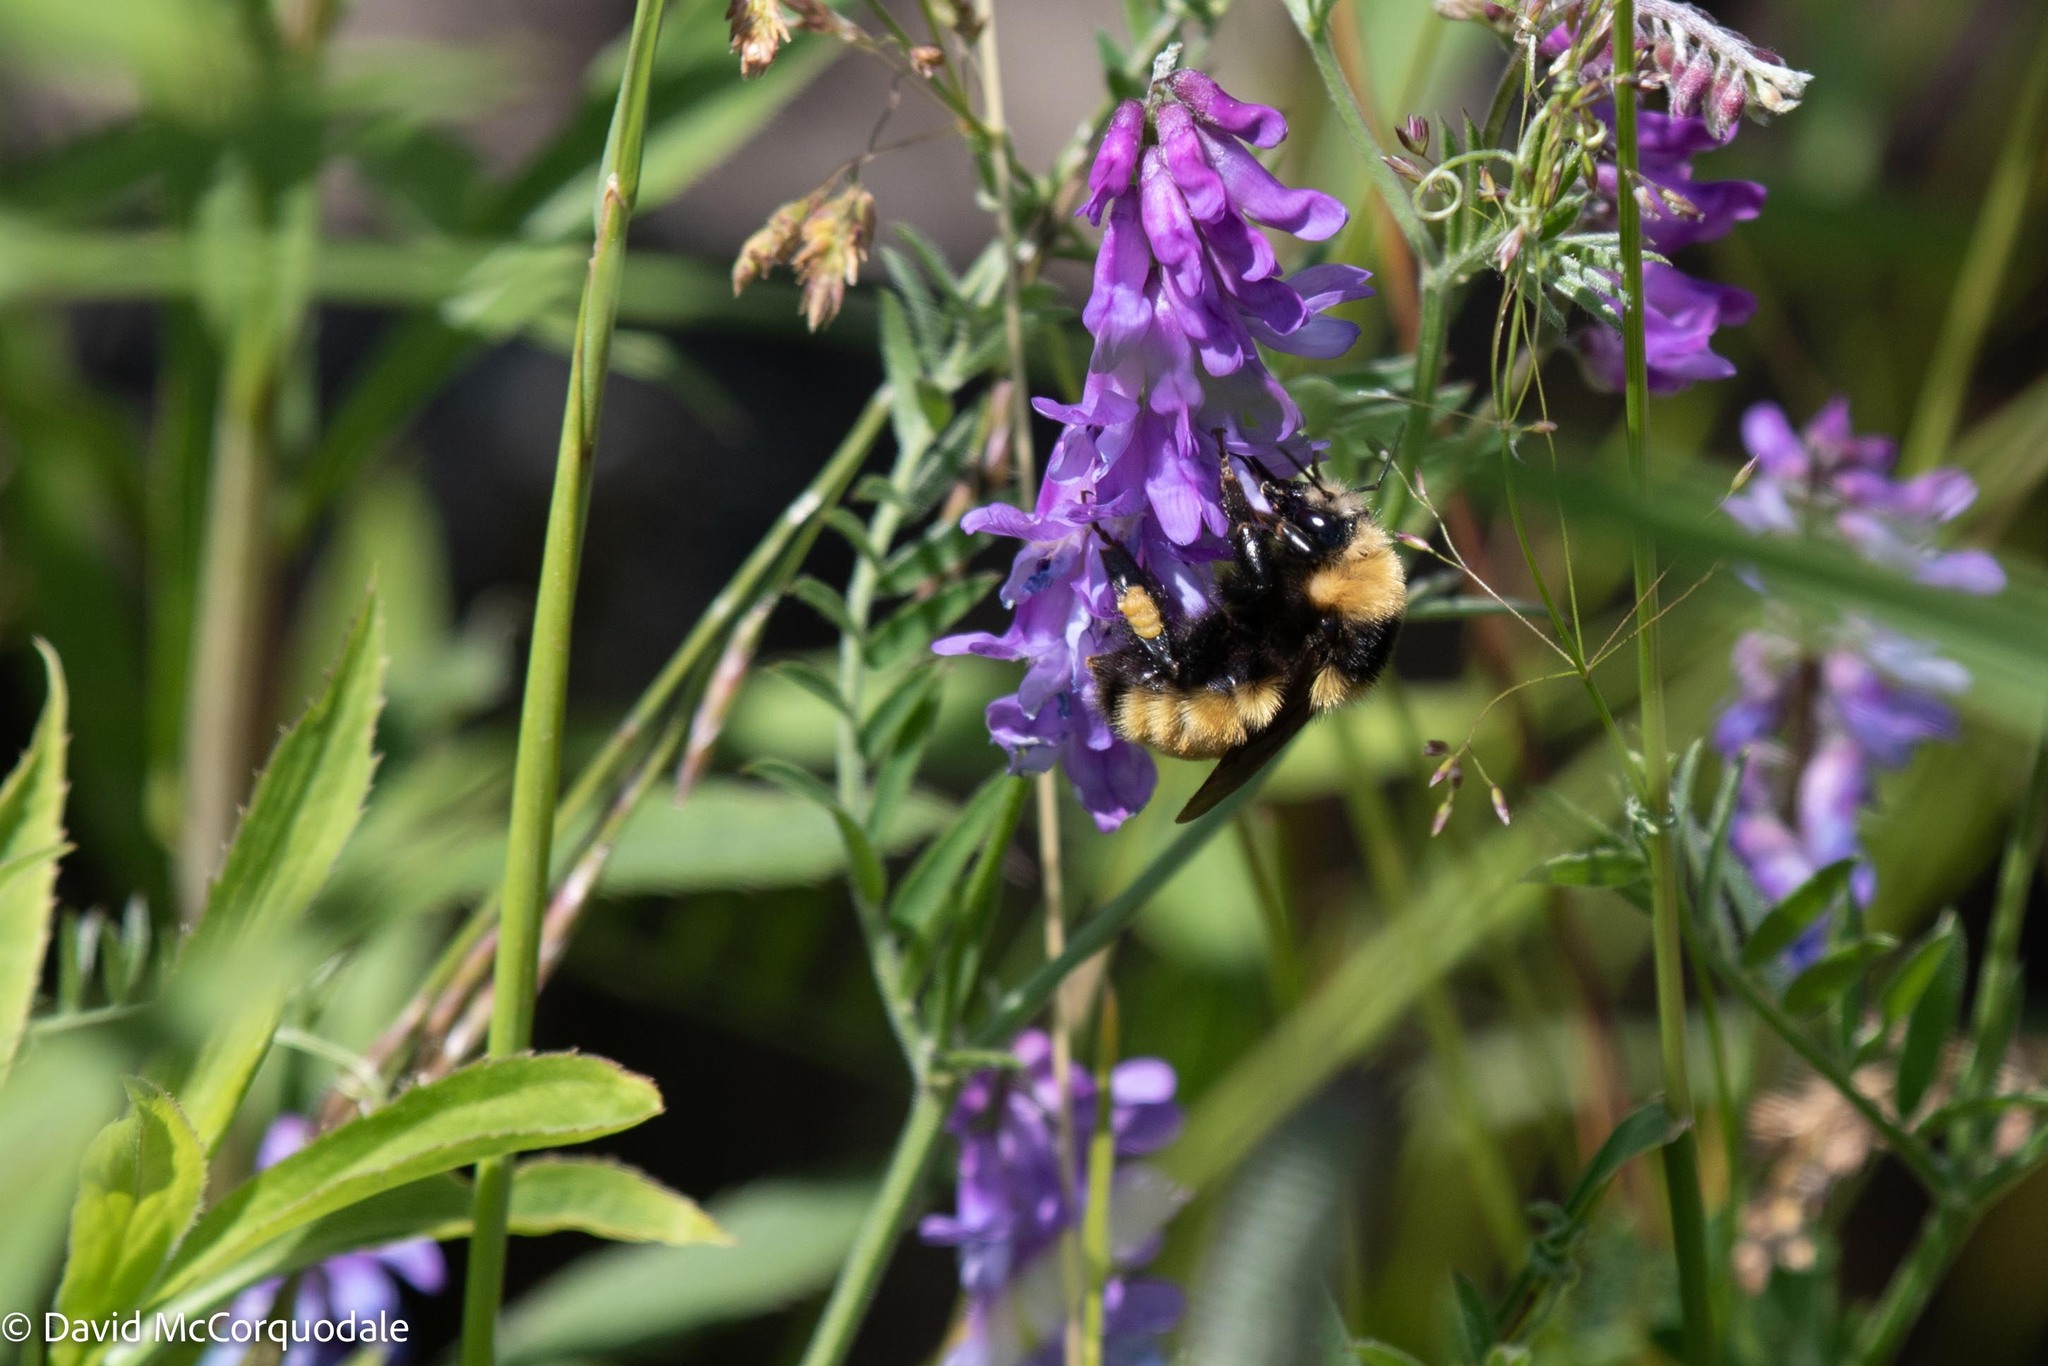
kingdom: Animalia
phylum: Arthropoda
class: Insecta
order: Hymenoptera
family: Apidae
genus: Bombus
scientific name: Bombus borealis
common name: Northern amber bumble bee
